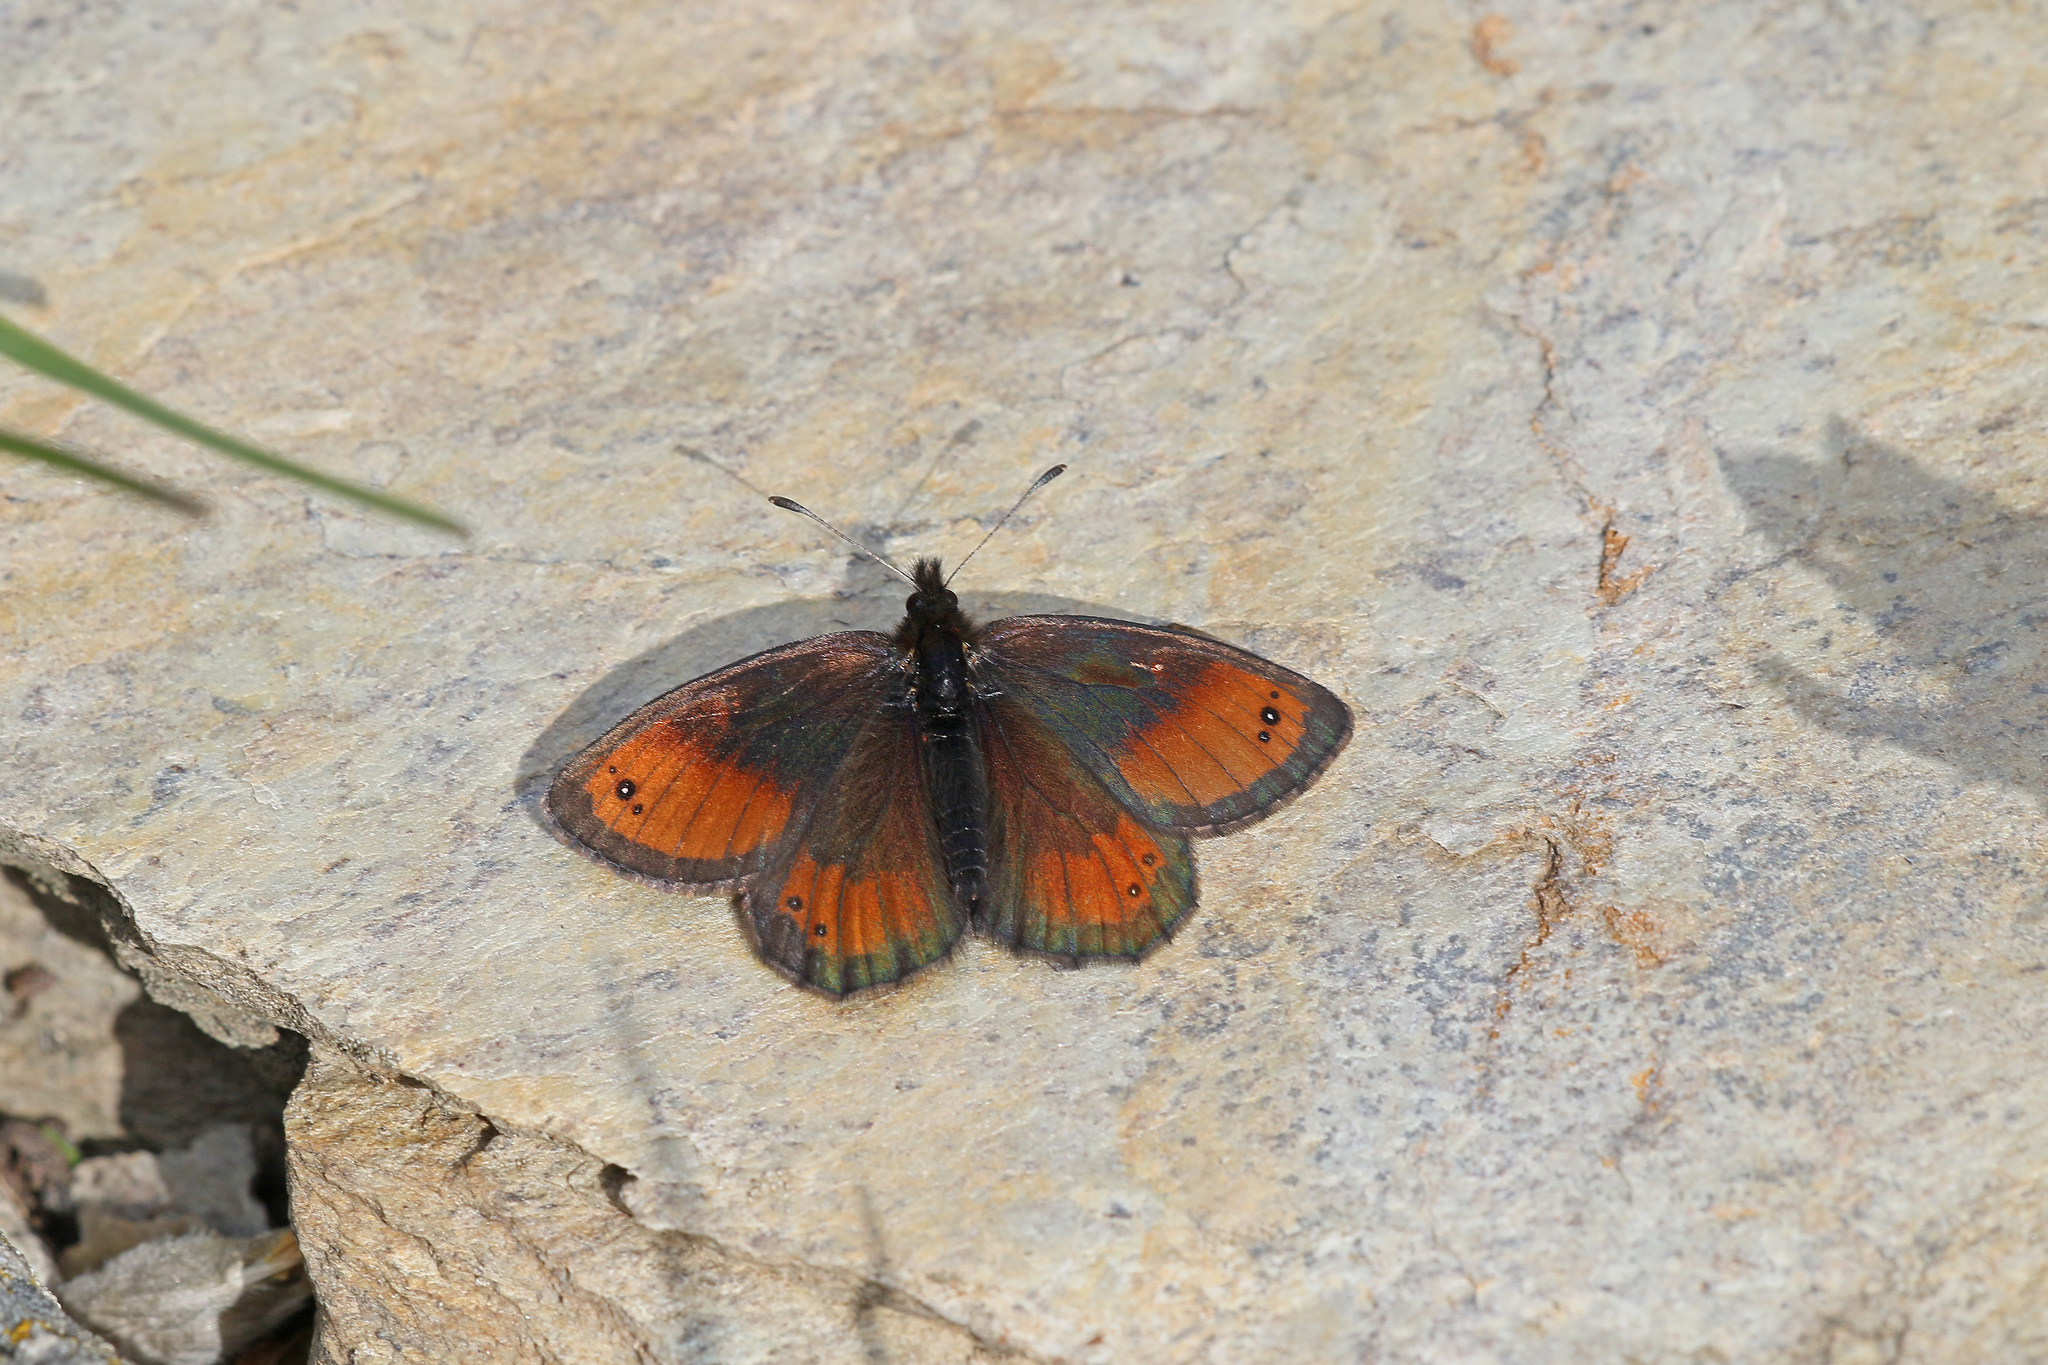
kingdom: Animalia
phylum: Arthropoda
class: Insecta
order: Lepidoptera
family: Nymphalidae
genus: Erebia
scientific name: Erebia gorge
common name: Silky ringlet
